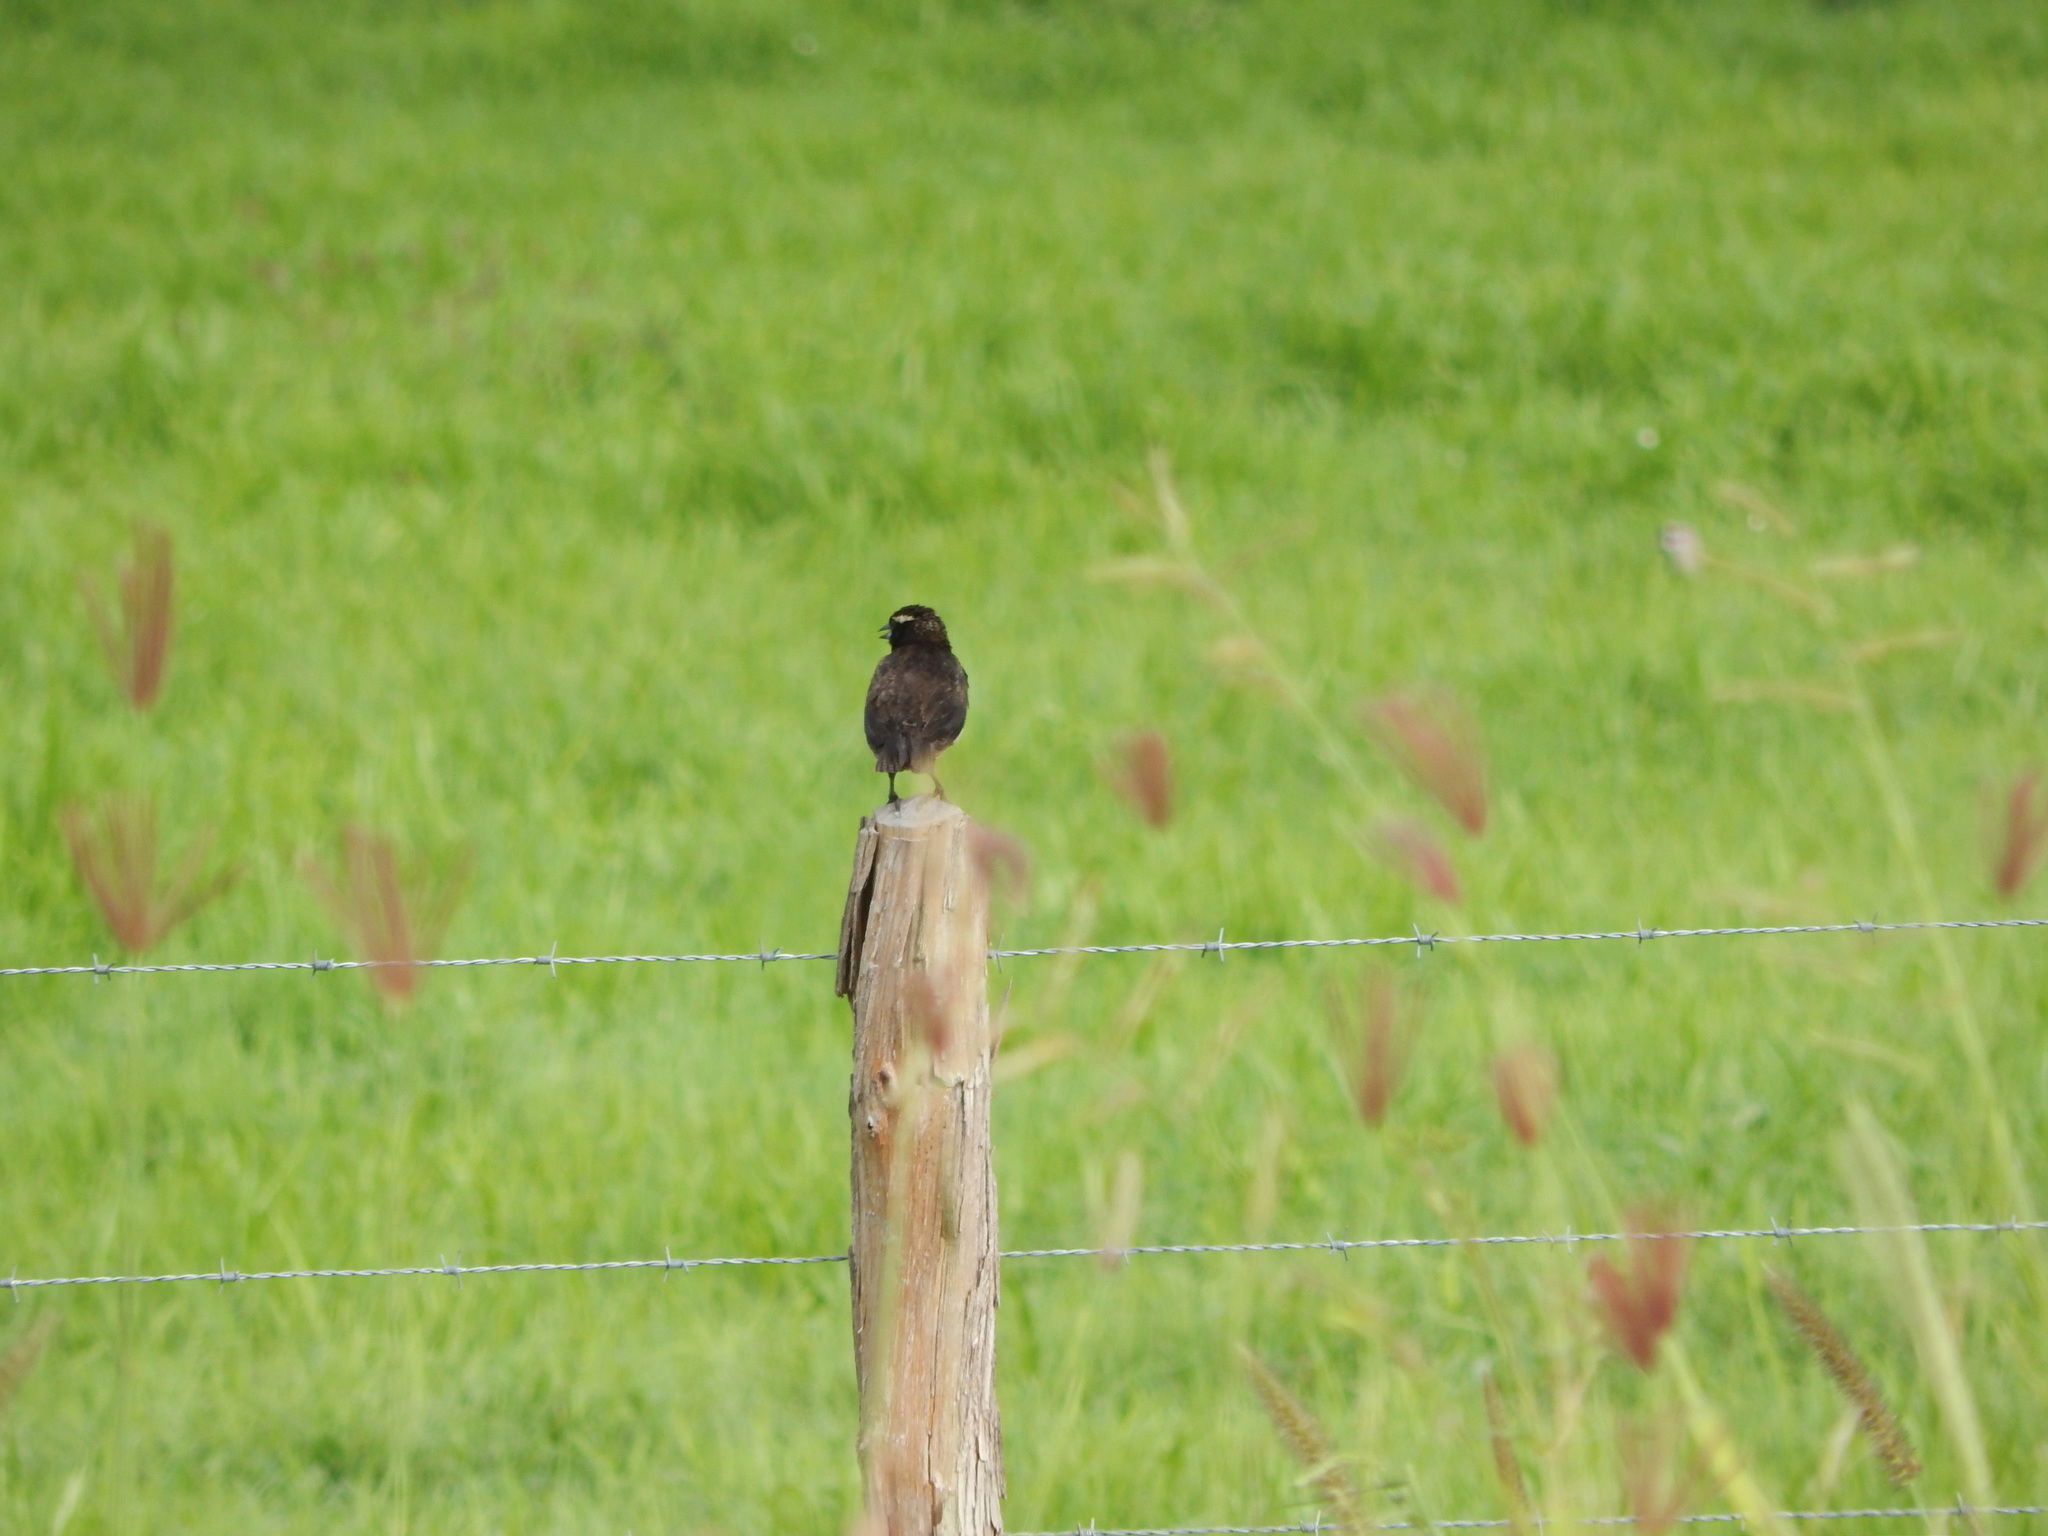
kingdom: Animalia
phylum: Chordata
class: Aves
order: Passeriformes
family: Icteridae
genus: Sturnella
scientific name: Sturnella superciliaris
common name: White-browed blackbird
